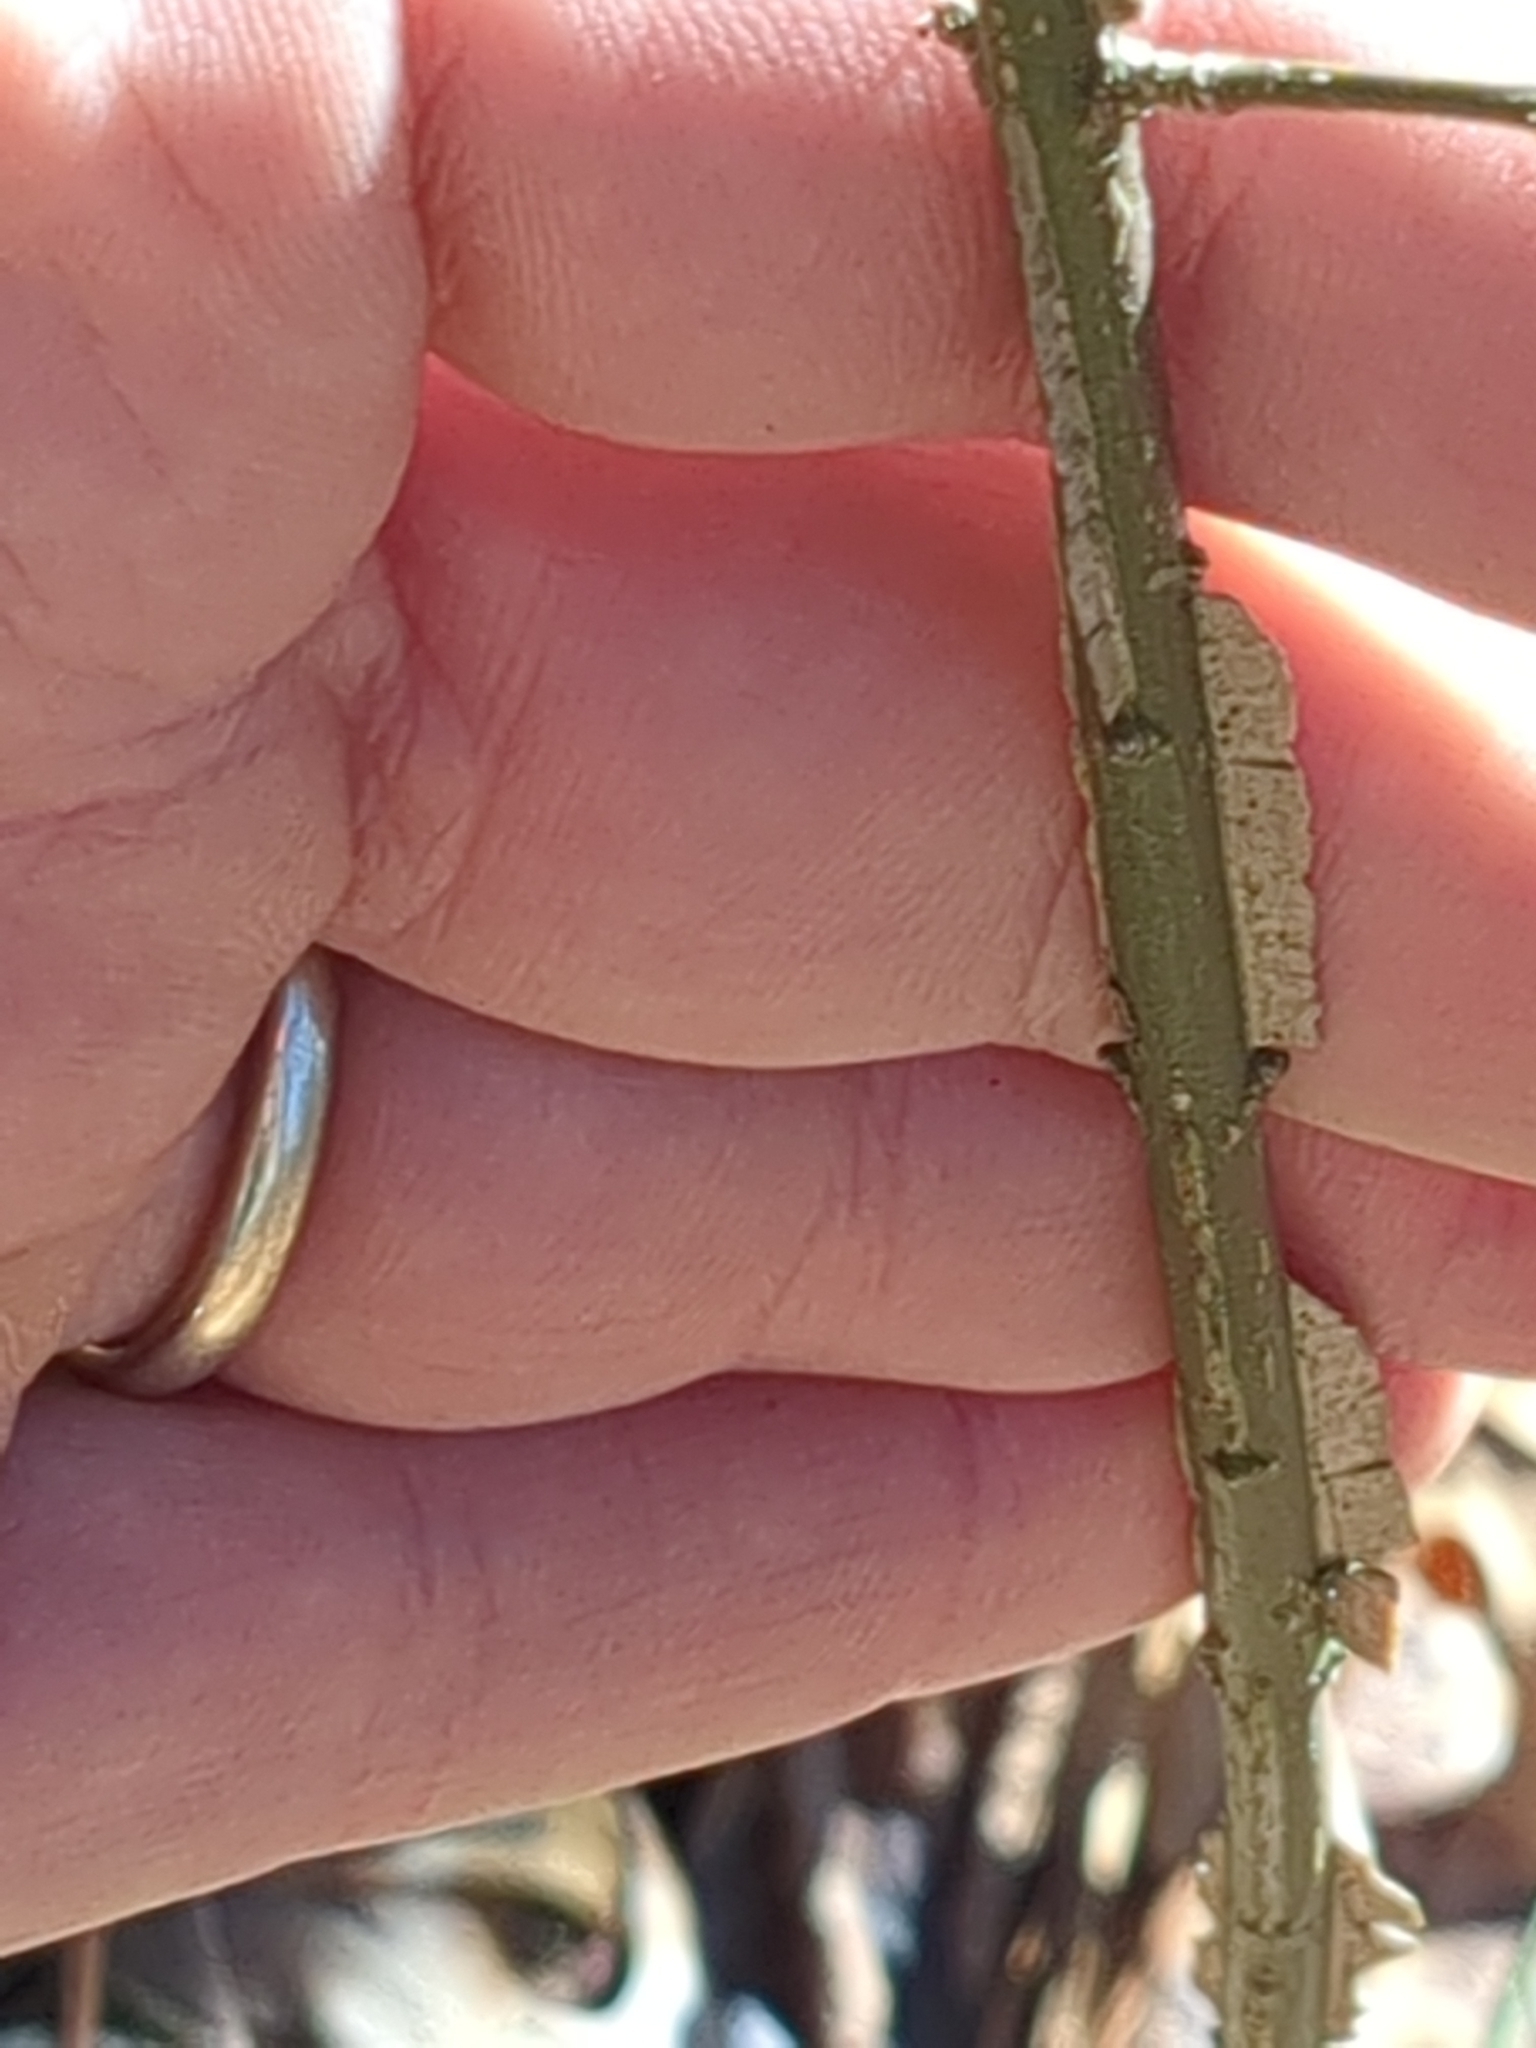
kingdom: Plantae
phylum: Tracheophyta
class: Magnoliopsida
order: Celastrales
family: Celastraceae
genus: Euonymus
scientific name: Euonymus alatus
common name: Winged euonymus
